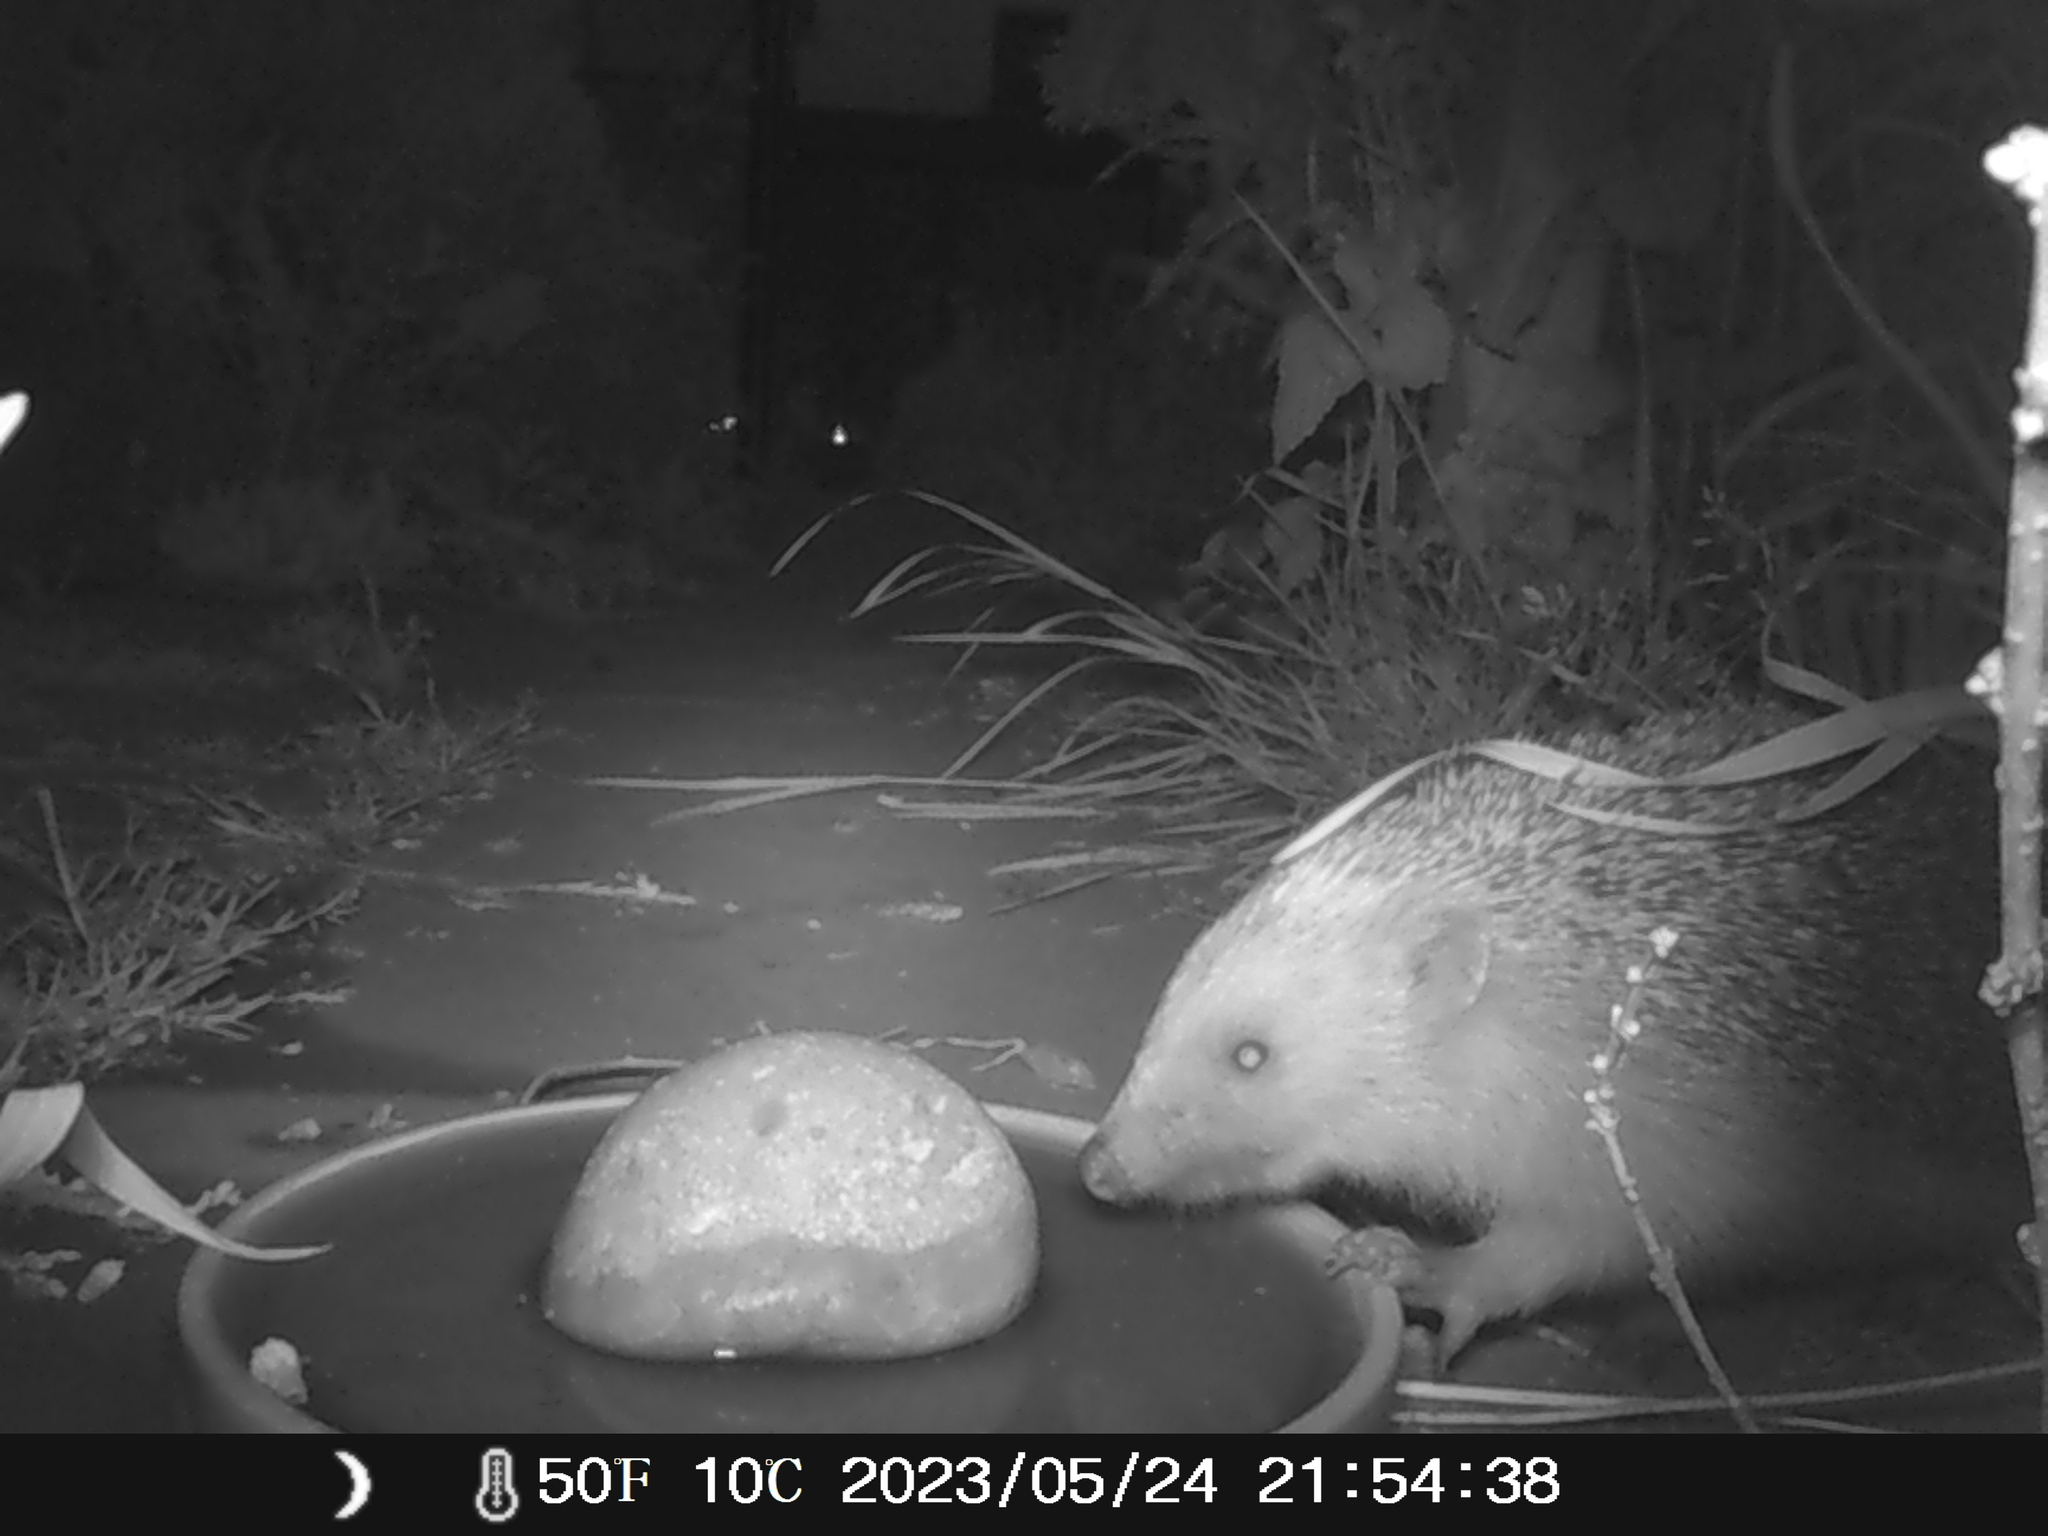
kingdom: Animalia
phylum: Chordata
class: Mammalia
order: Erinaceomorpha
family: Erinaceidae
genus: Erinaceus
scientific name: Erinaceus europaeus
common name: West european hedgehog
